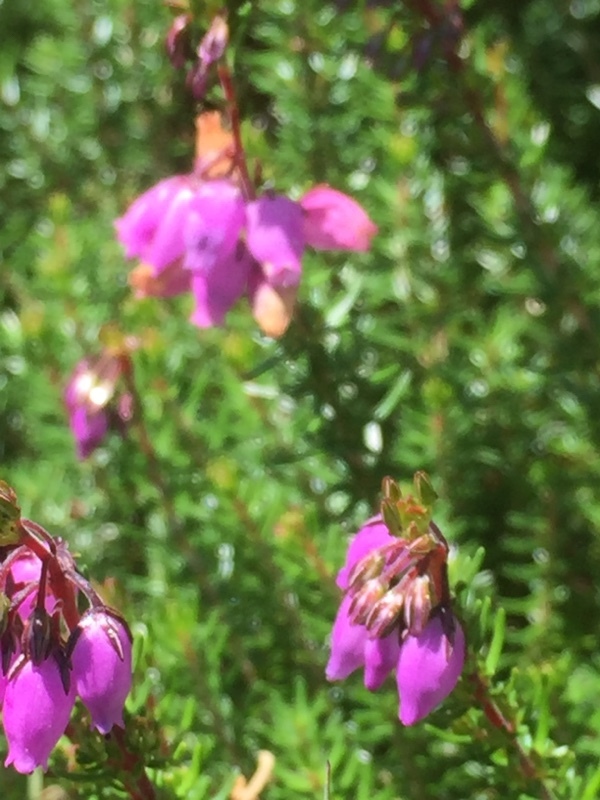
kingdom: Plantae
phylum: Tracheophyta
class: Magnoliopsida
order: Ericales
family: Ericaceae
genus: Erica
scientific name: Erica cinerea
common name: Bell heather
